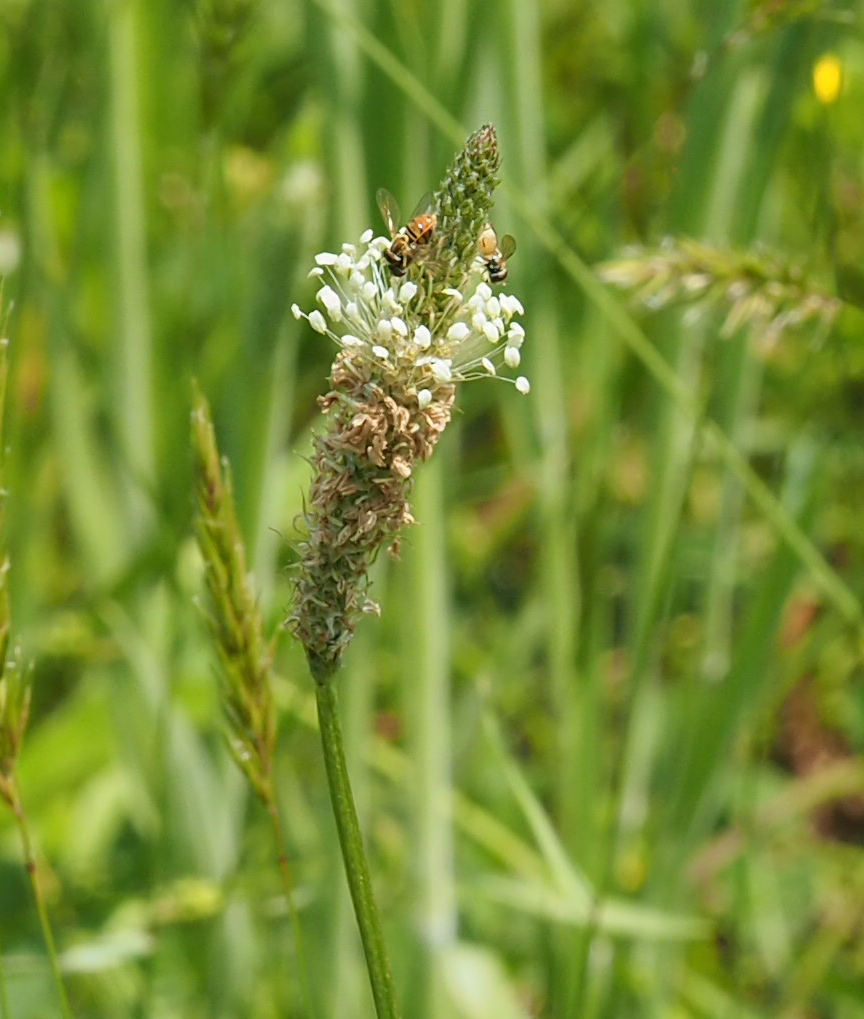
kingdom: Plantae
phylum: Tracheophyta
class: Magnoliopsida
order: Lamiales
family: Plantaginaceae
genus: Plantago
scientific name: Plantago lanceolata
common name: Ribwort plantain
